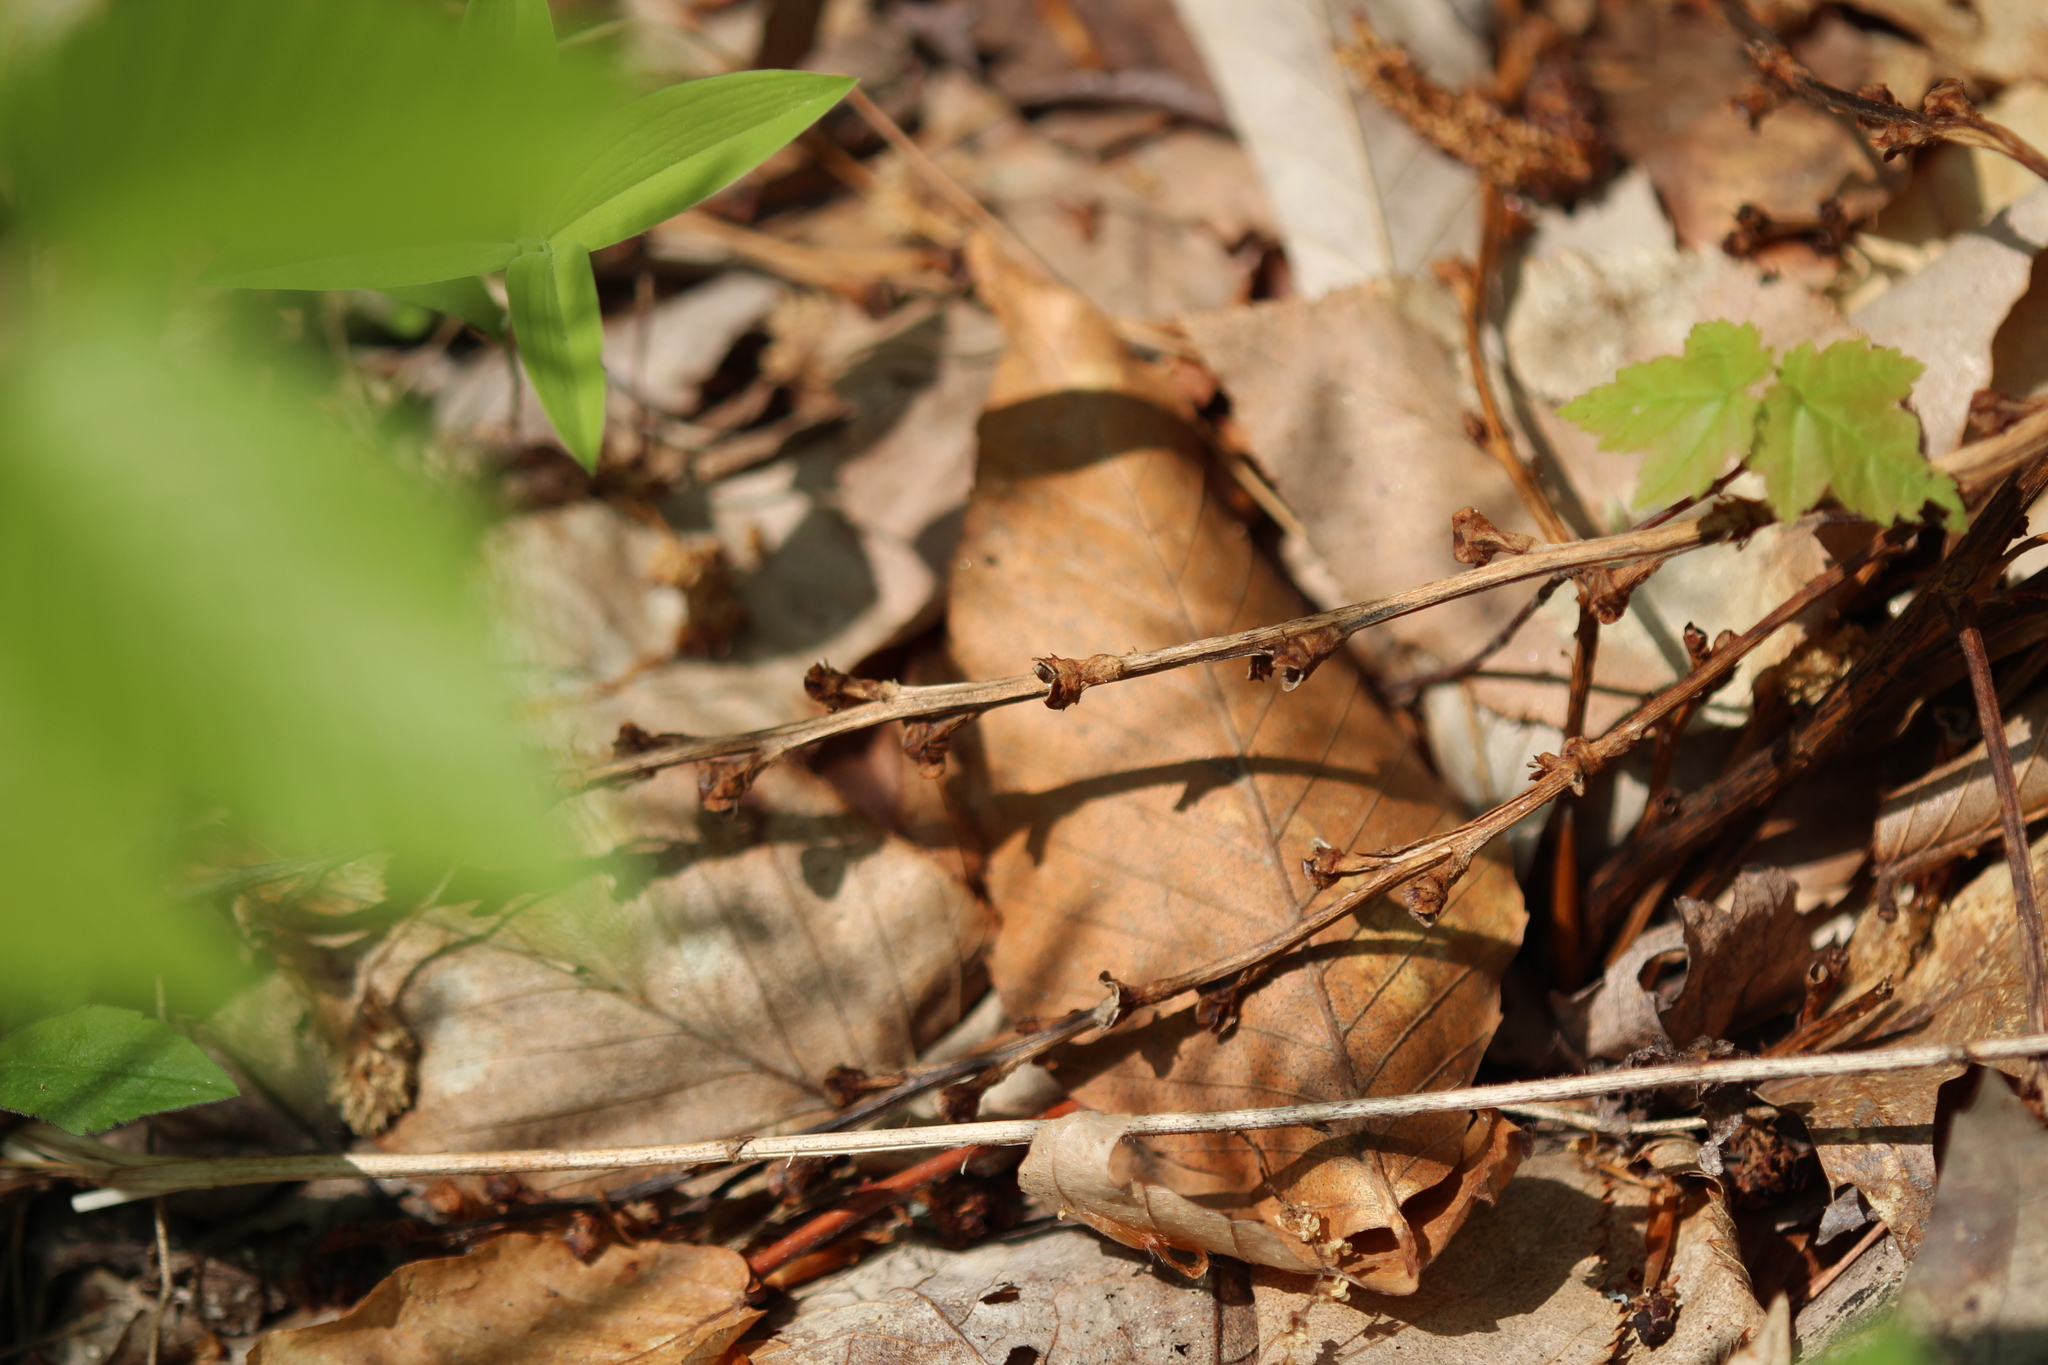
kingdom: Plantae
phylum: Tracheophyta
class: Magnoliopsida
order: Lamiales
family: Orobanchaceae
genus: Epifagus
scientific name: Epifagus virginiana
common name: Beechdrops
